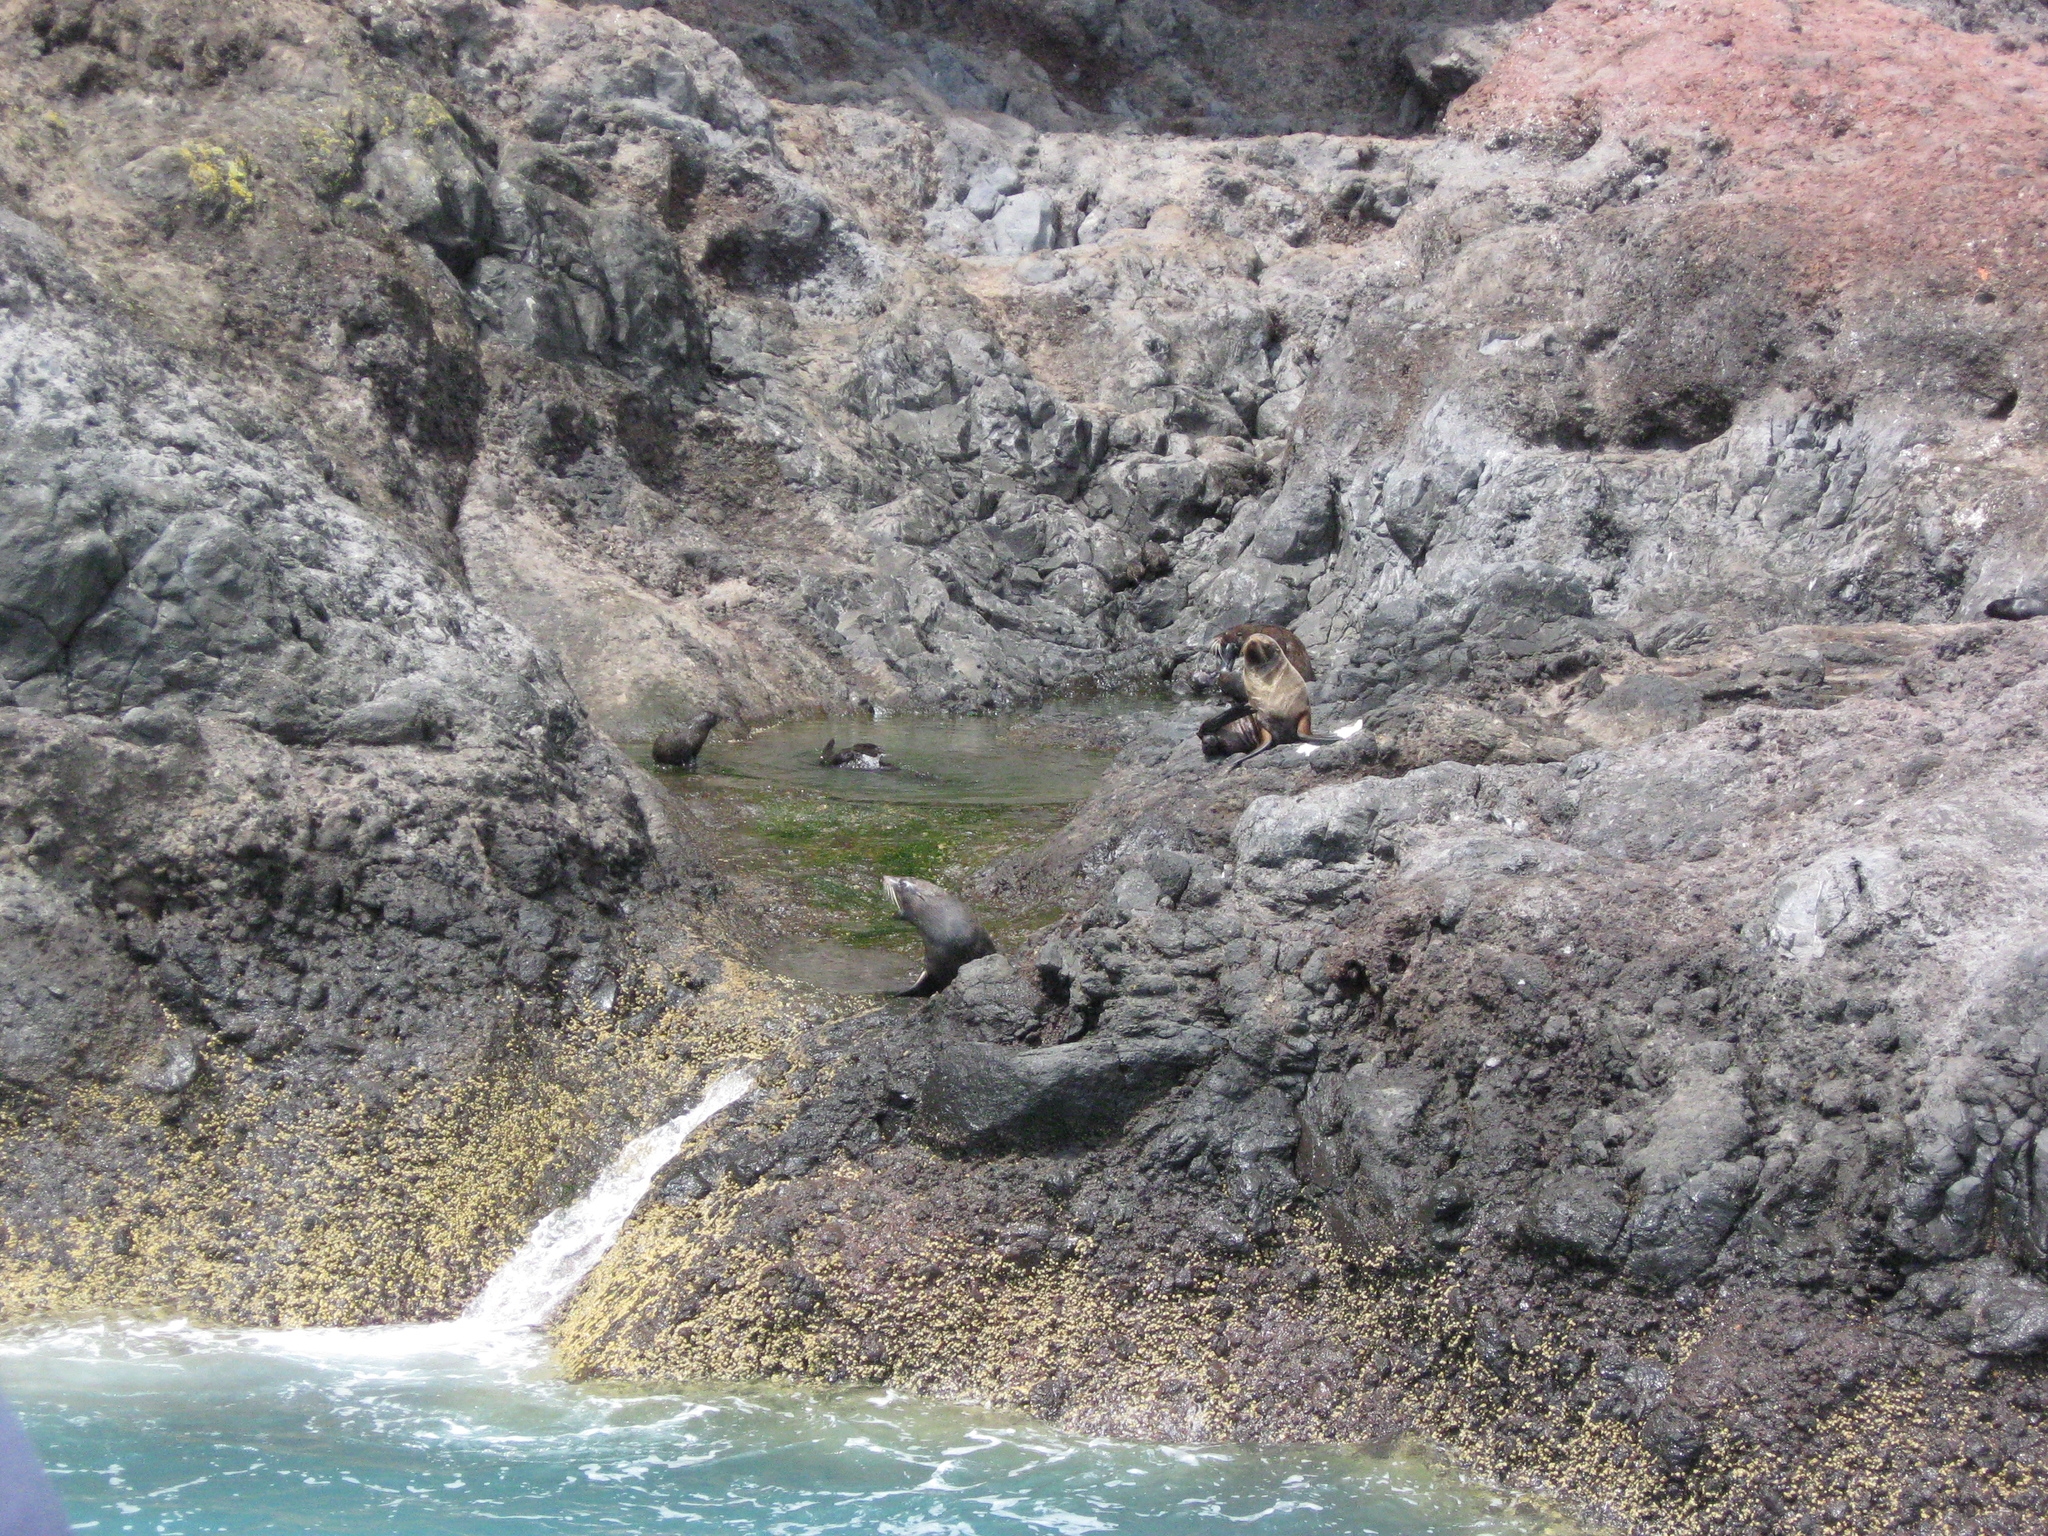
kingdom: Animalia
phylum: Chordata
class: Mammalia
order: Carnivora
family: Otariidae
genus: Arctocephalus
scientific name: Arctocephalus forsteri
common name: New zealand fur seal
